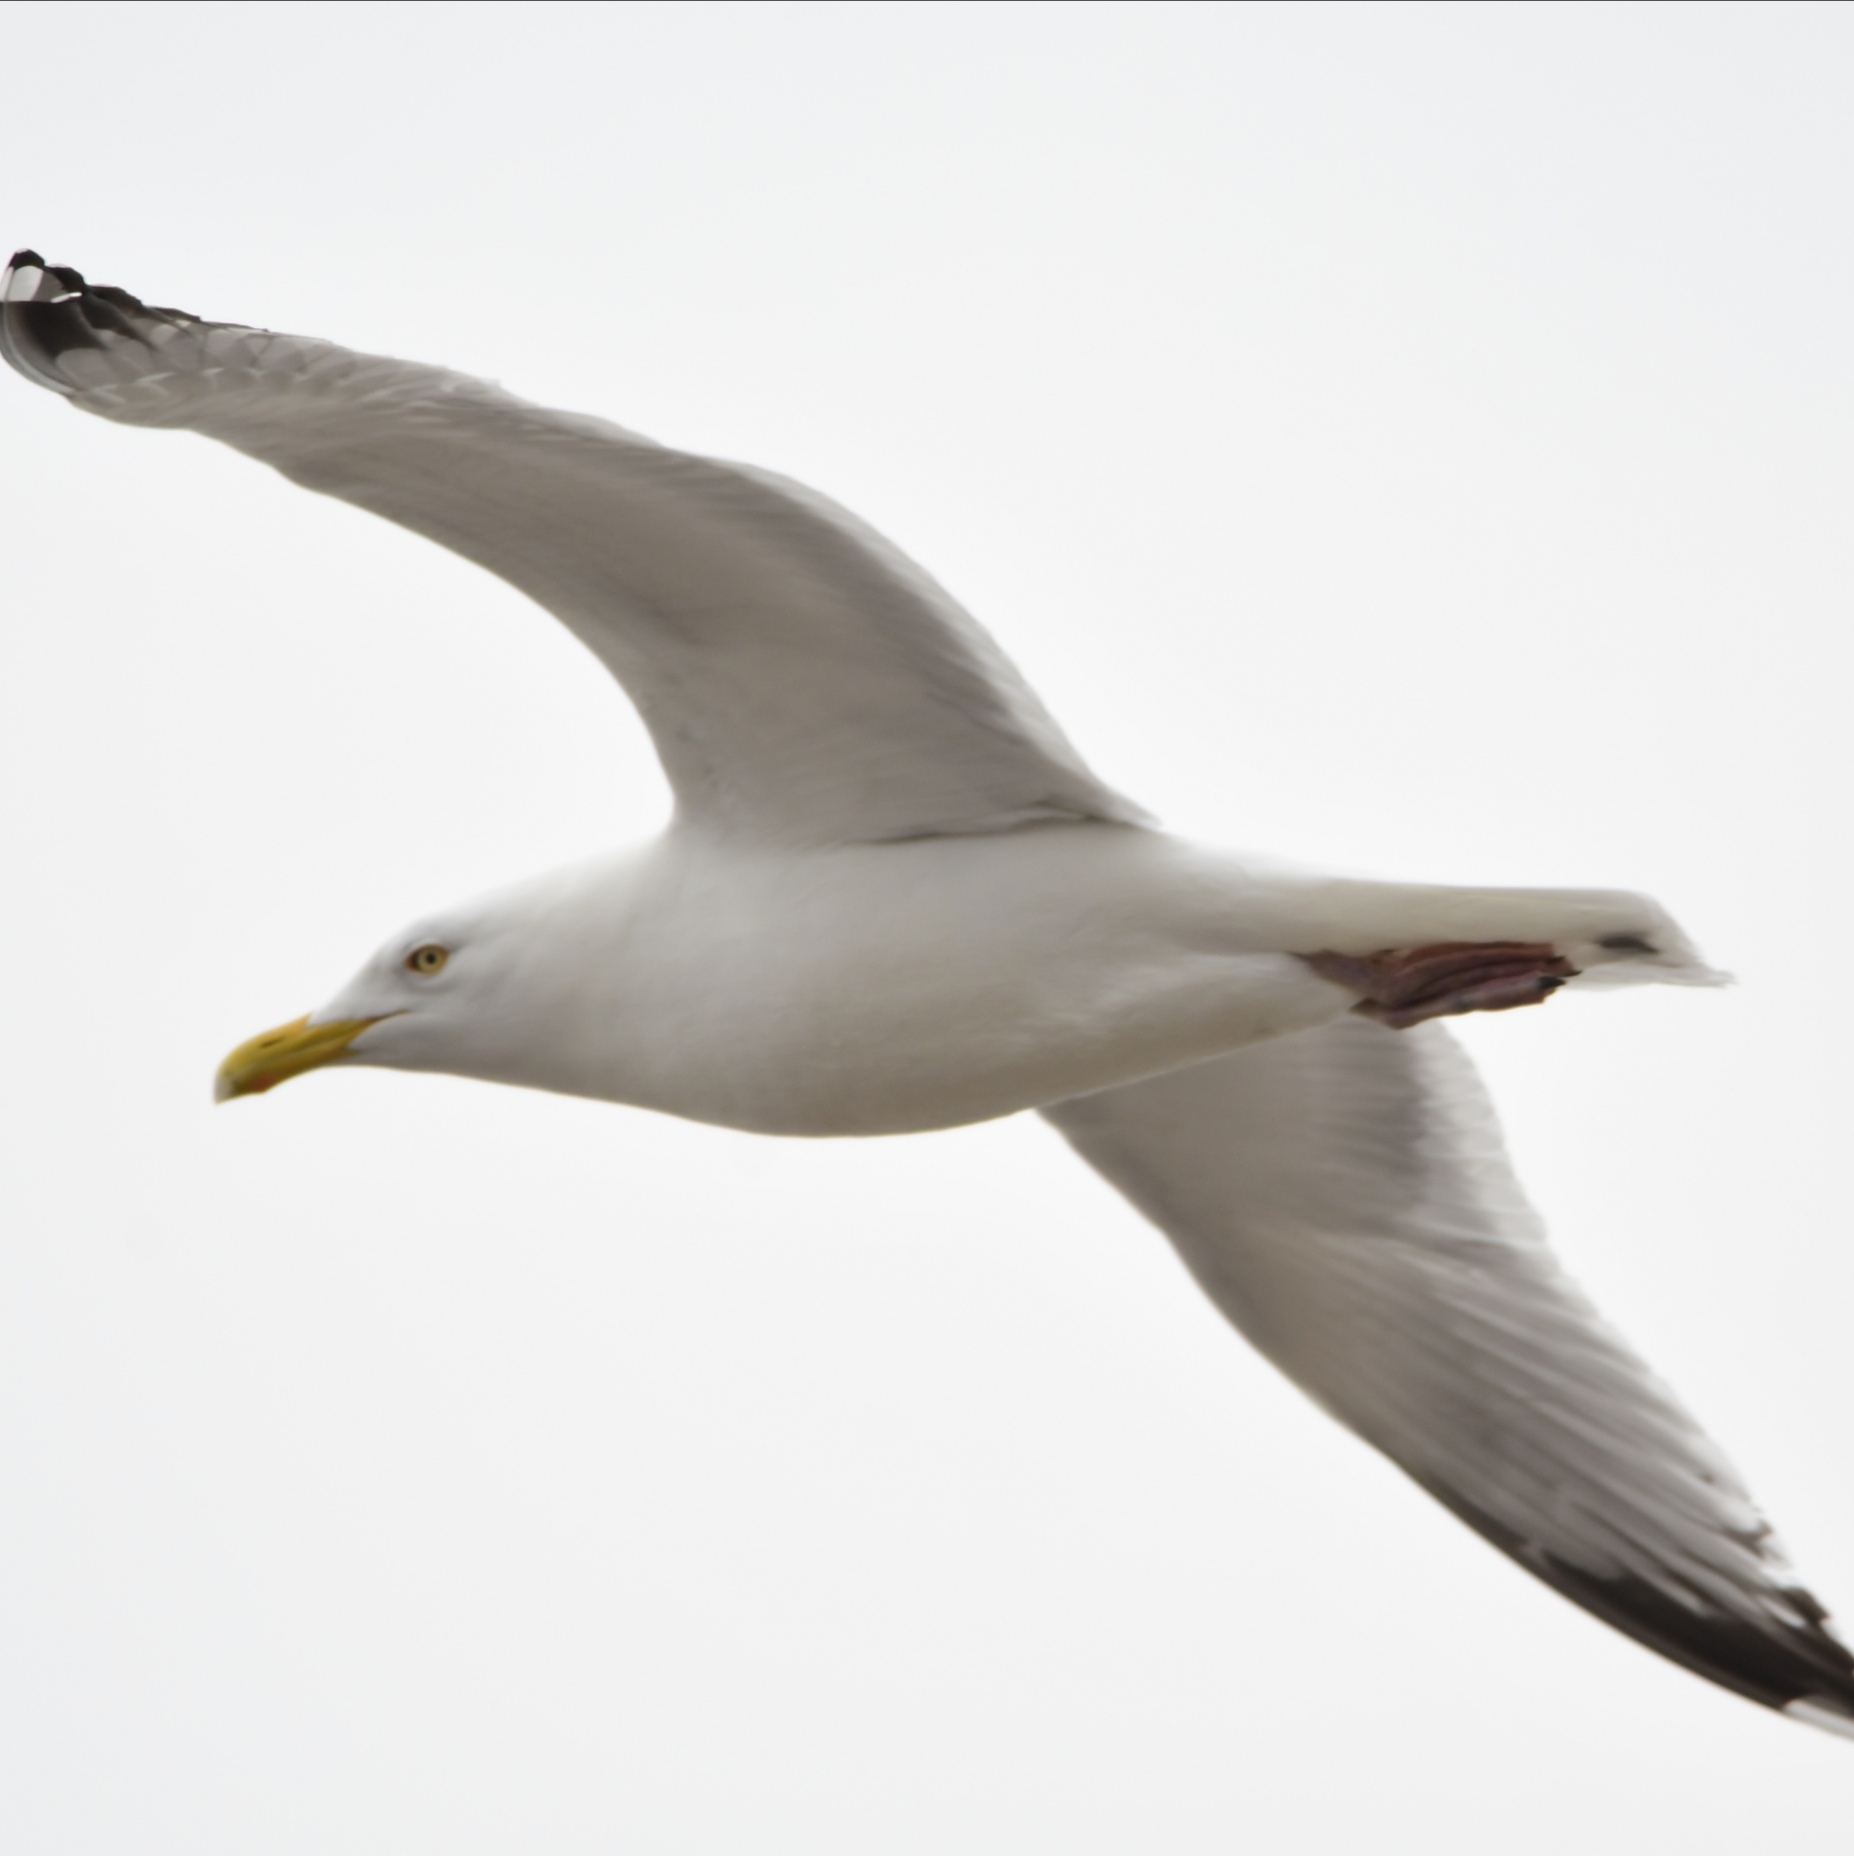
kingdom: Animalia
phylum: Chordata
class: Aves
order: Charadriiformes
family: Laridae
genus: Larus
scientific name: Larus argentatus
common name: Herring gull
